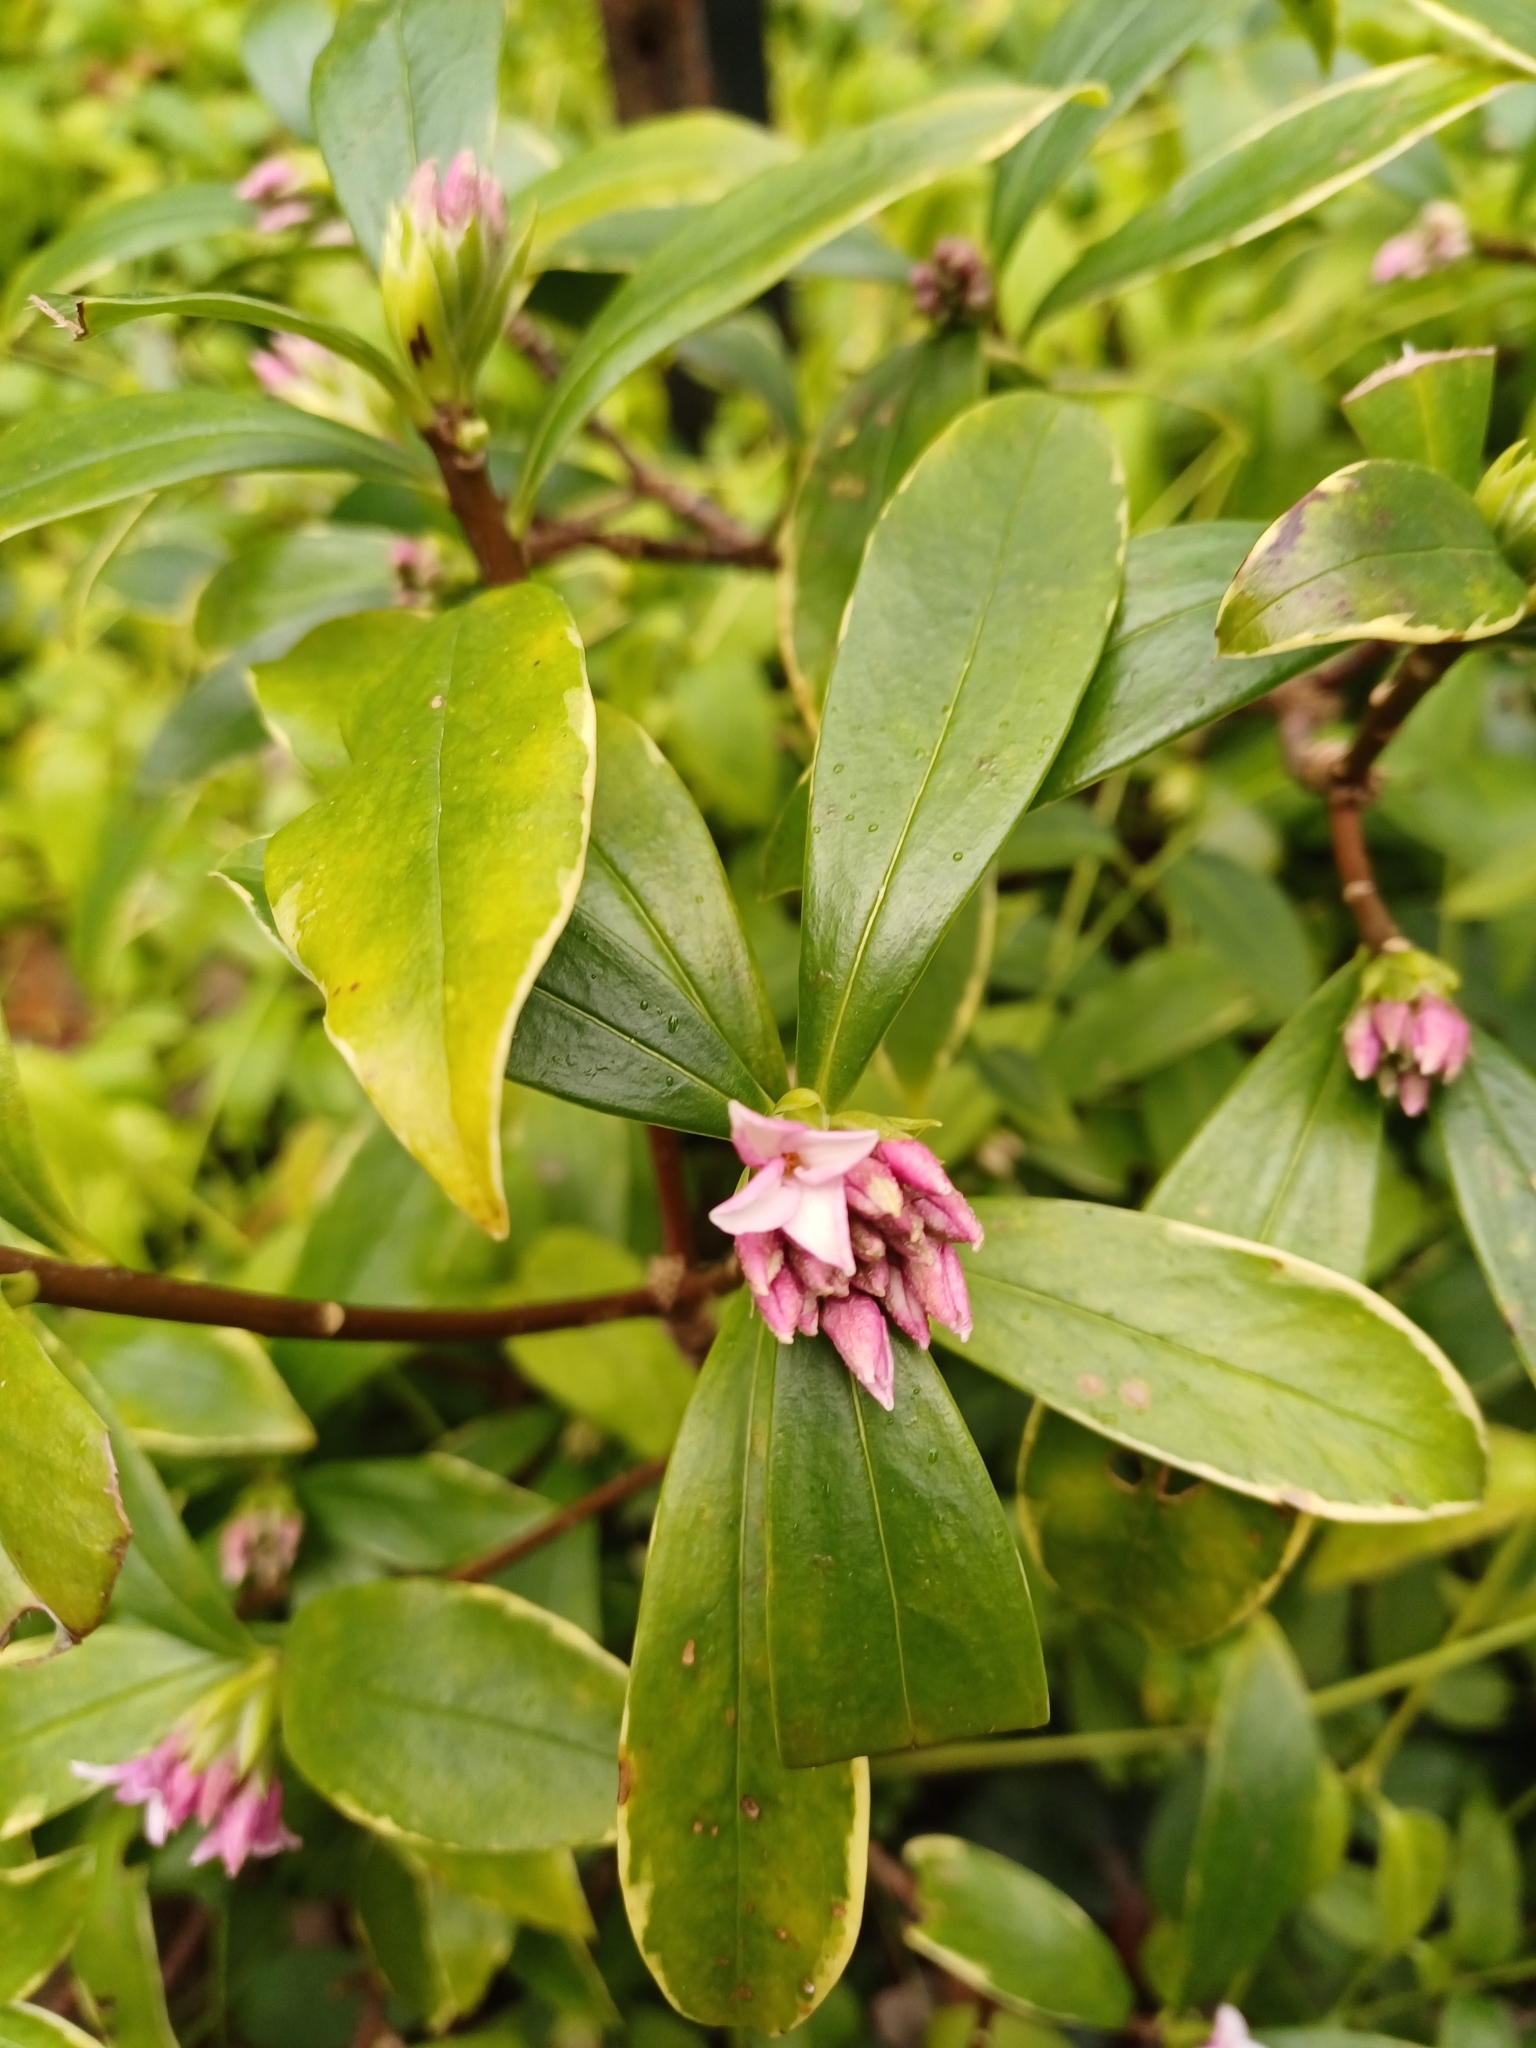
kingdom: Plantae
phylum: Tracheophyta
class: Magnoliopsida
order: Malvales
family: Thymelaeaceae
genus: Daphne
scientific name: Daphne odora
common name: Winter daphne
